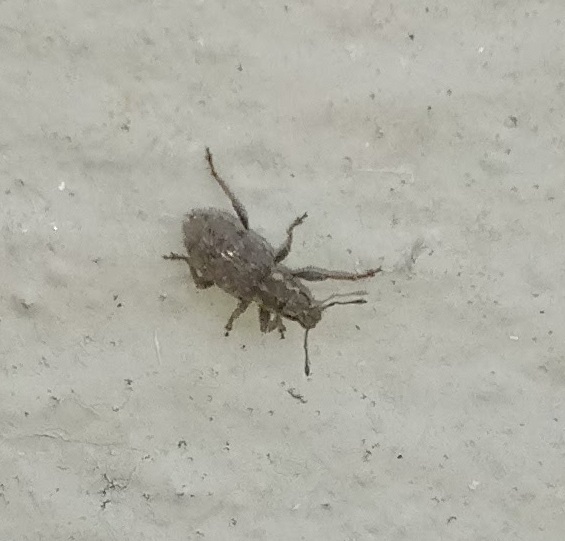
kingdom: Animalia
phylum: Arthropoda
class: Insecta
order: Coleoptera
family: Curculionidae
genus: Sitona
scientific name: Sitona hispidulus
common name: Clover weevil
